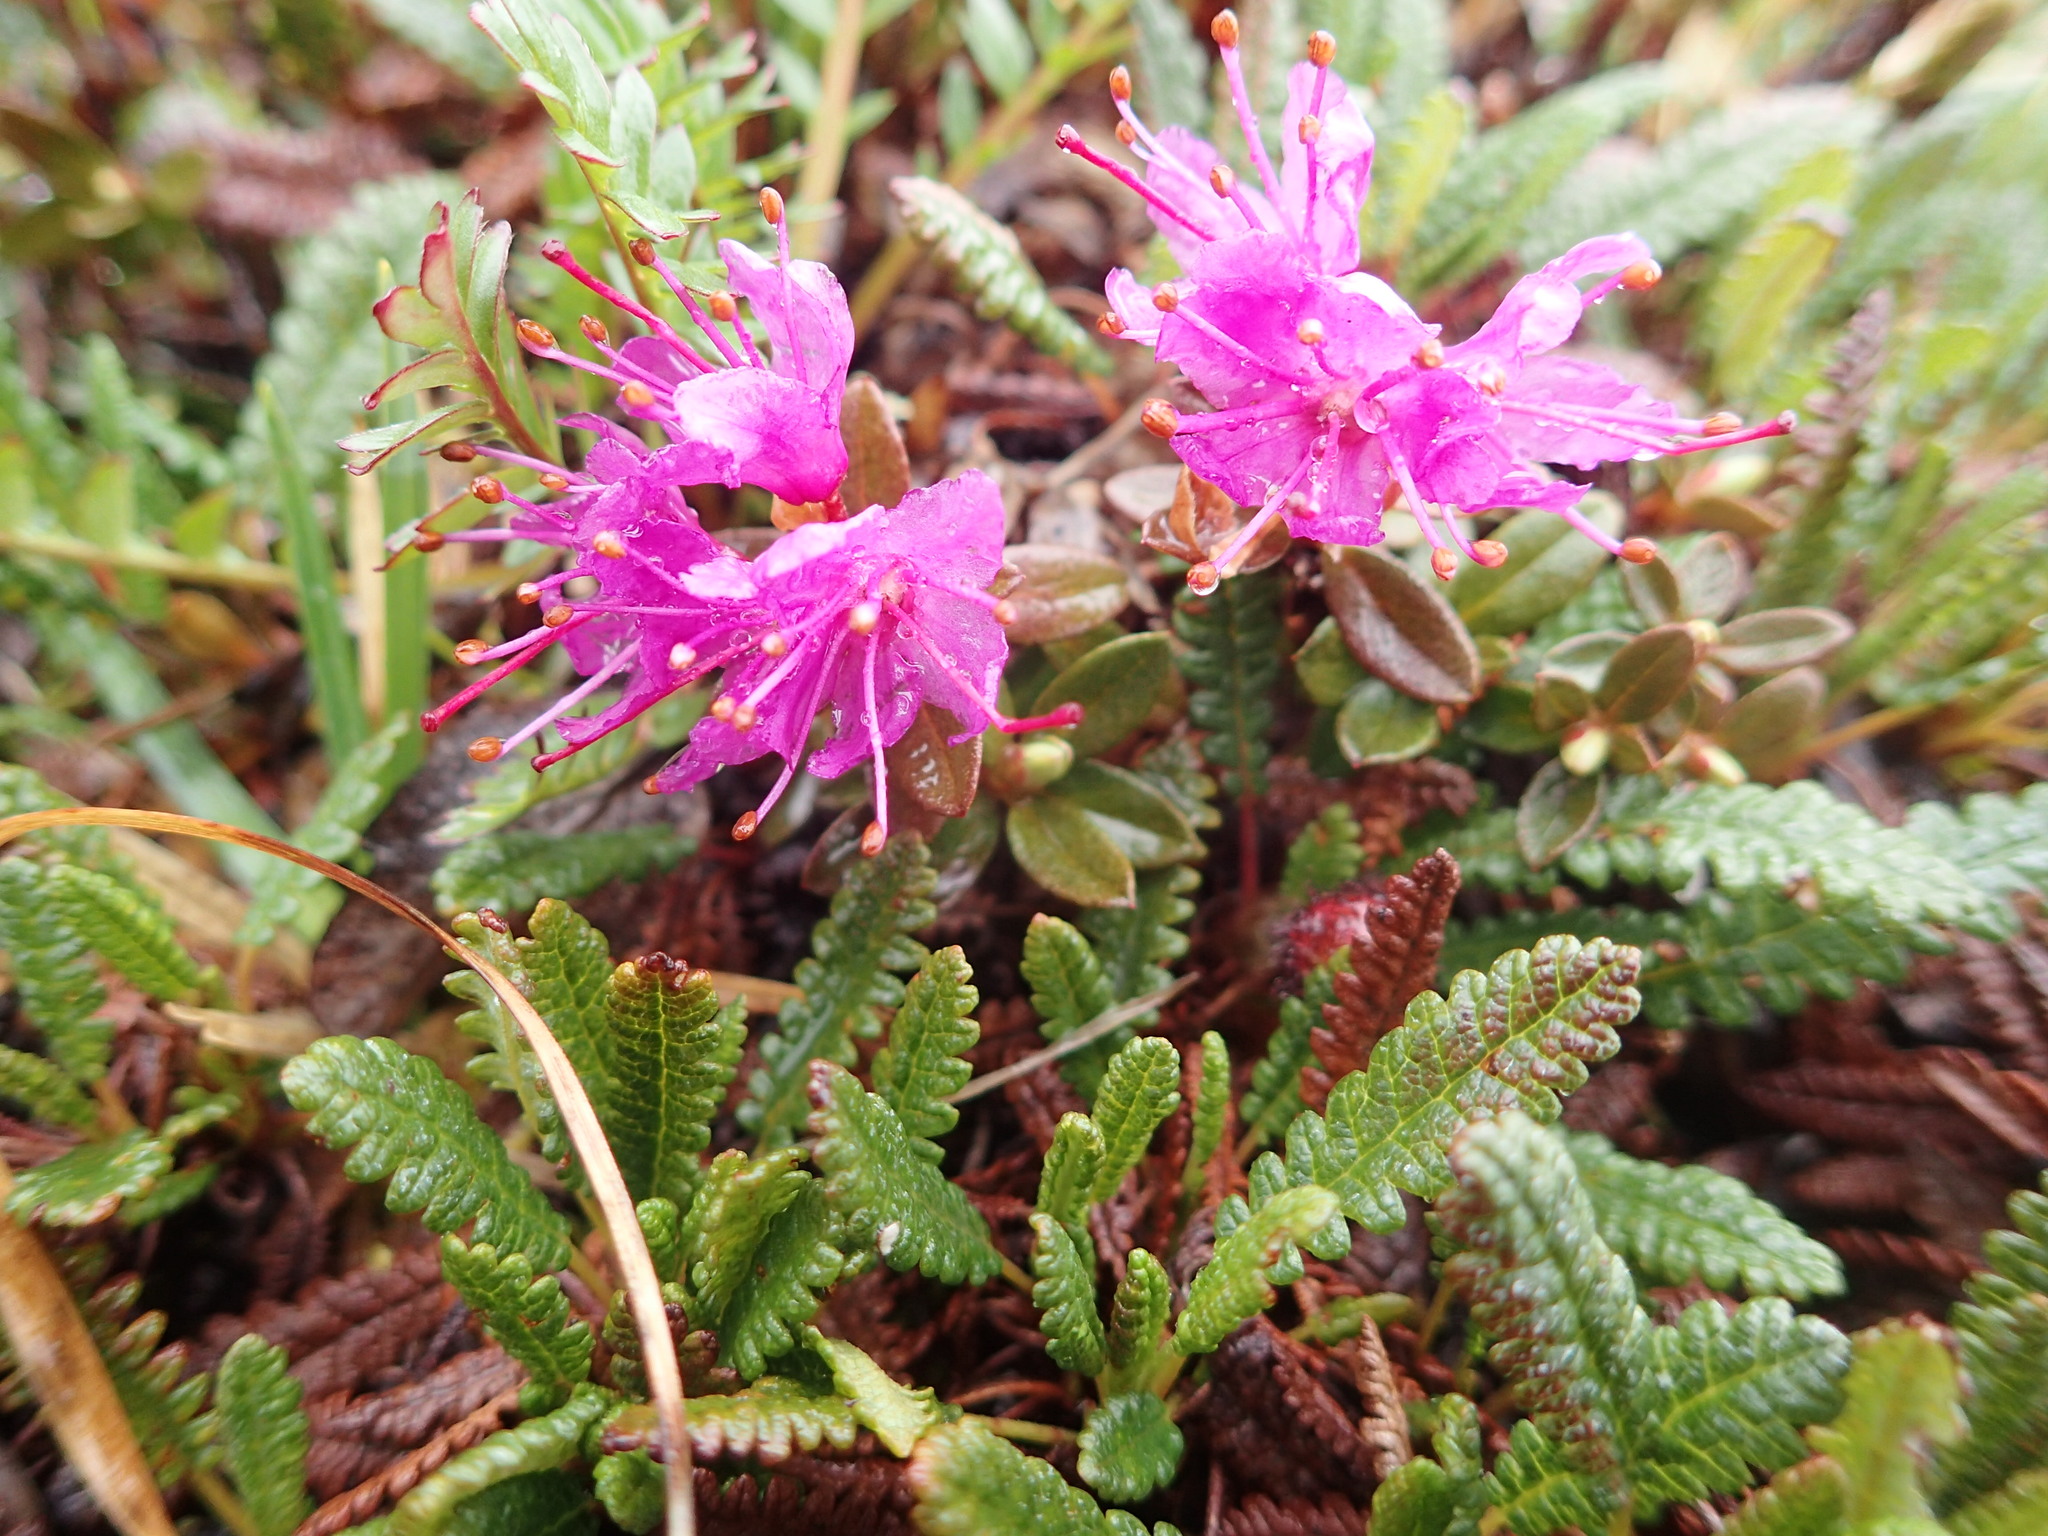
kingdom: Plantae
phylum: Tracheophyta
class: Magnoliopsida
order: Ericales
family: Ericaceae
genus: Rhododendron
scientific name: Rhododendron lapponicum
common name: Lapland rhododendron
